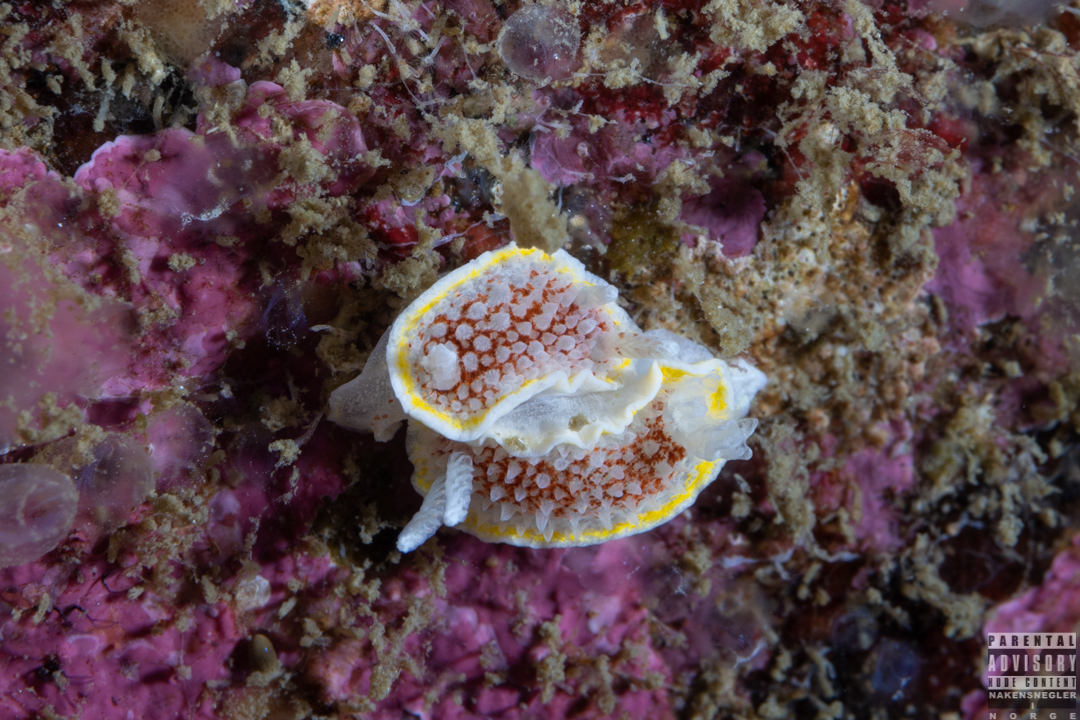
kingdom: Animalia
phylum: Mollusca
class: Gastropoda
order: Nudibranchia
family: Calycidorididae
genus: Diaphorodoris
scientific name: Diaphorodoris luteocincta
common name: Fried egg nudibranch
